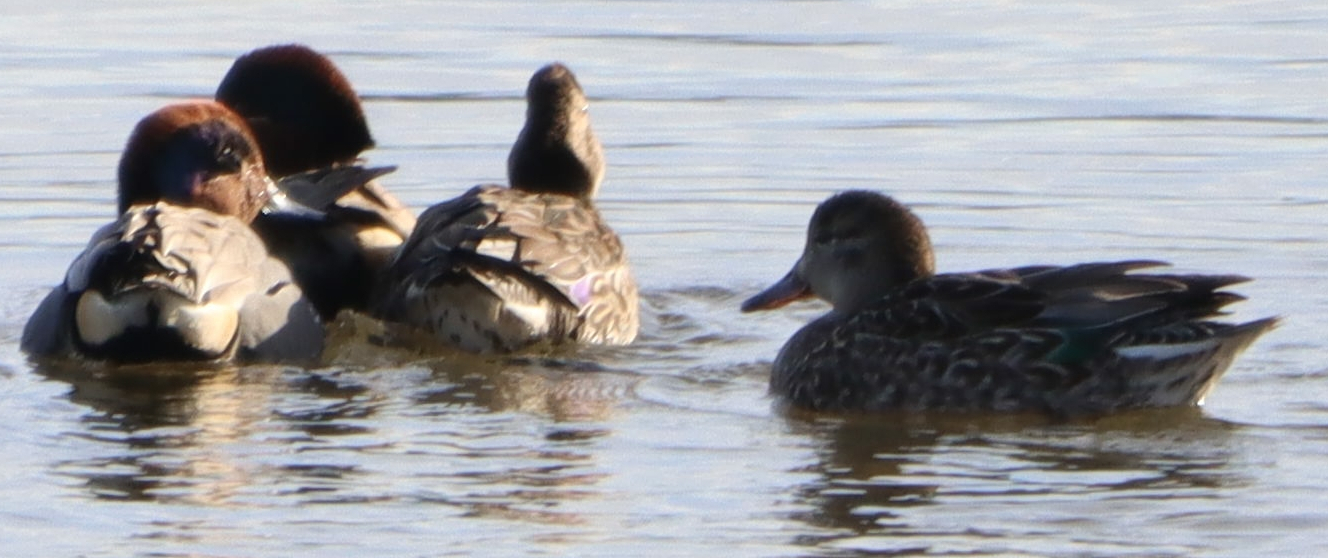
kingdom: Animalia
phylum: Chordata
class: Aves
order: Anseriformes
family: Anatidae
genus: Anas
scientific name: Anas crecca
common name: Eurasian teal
